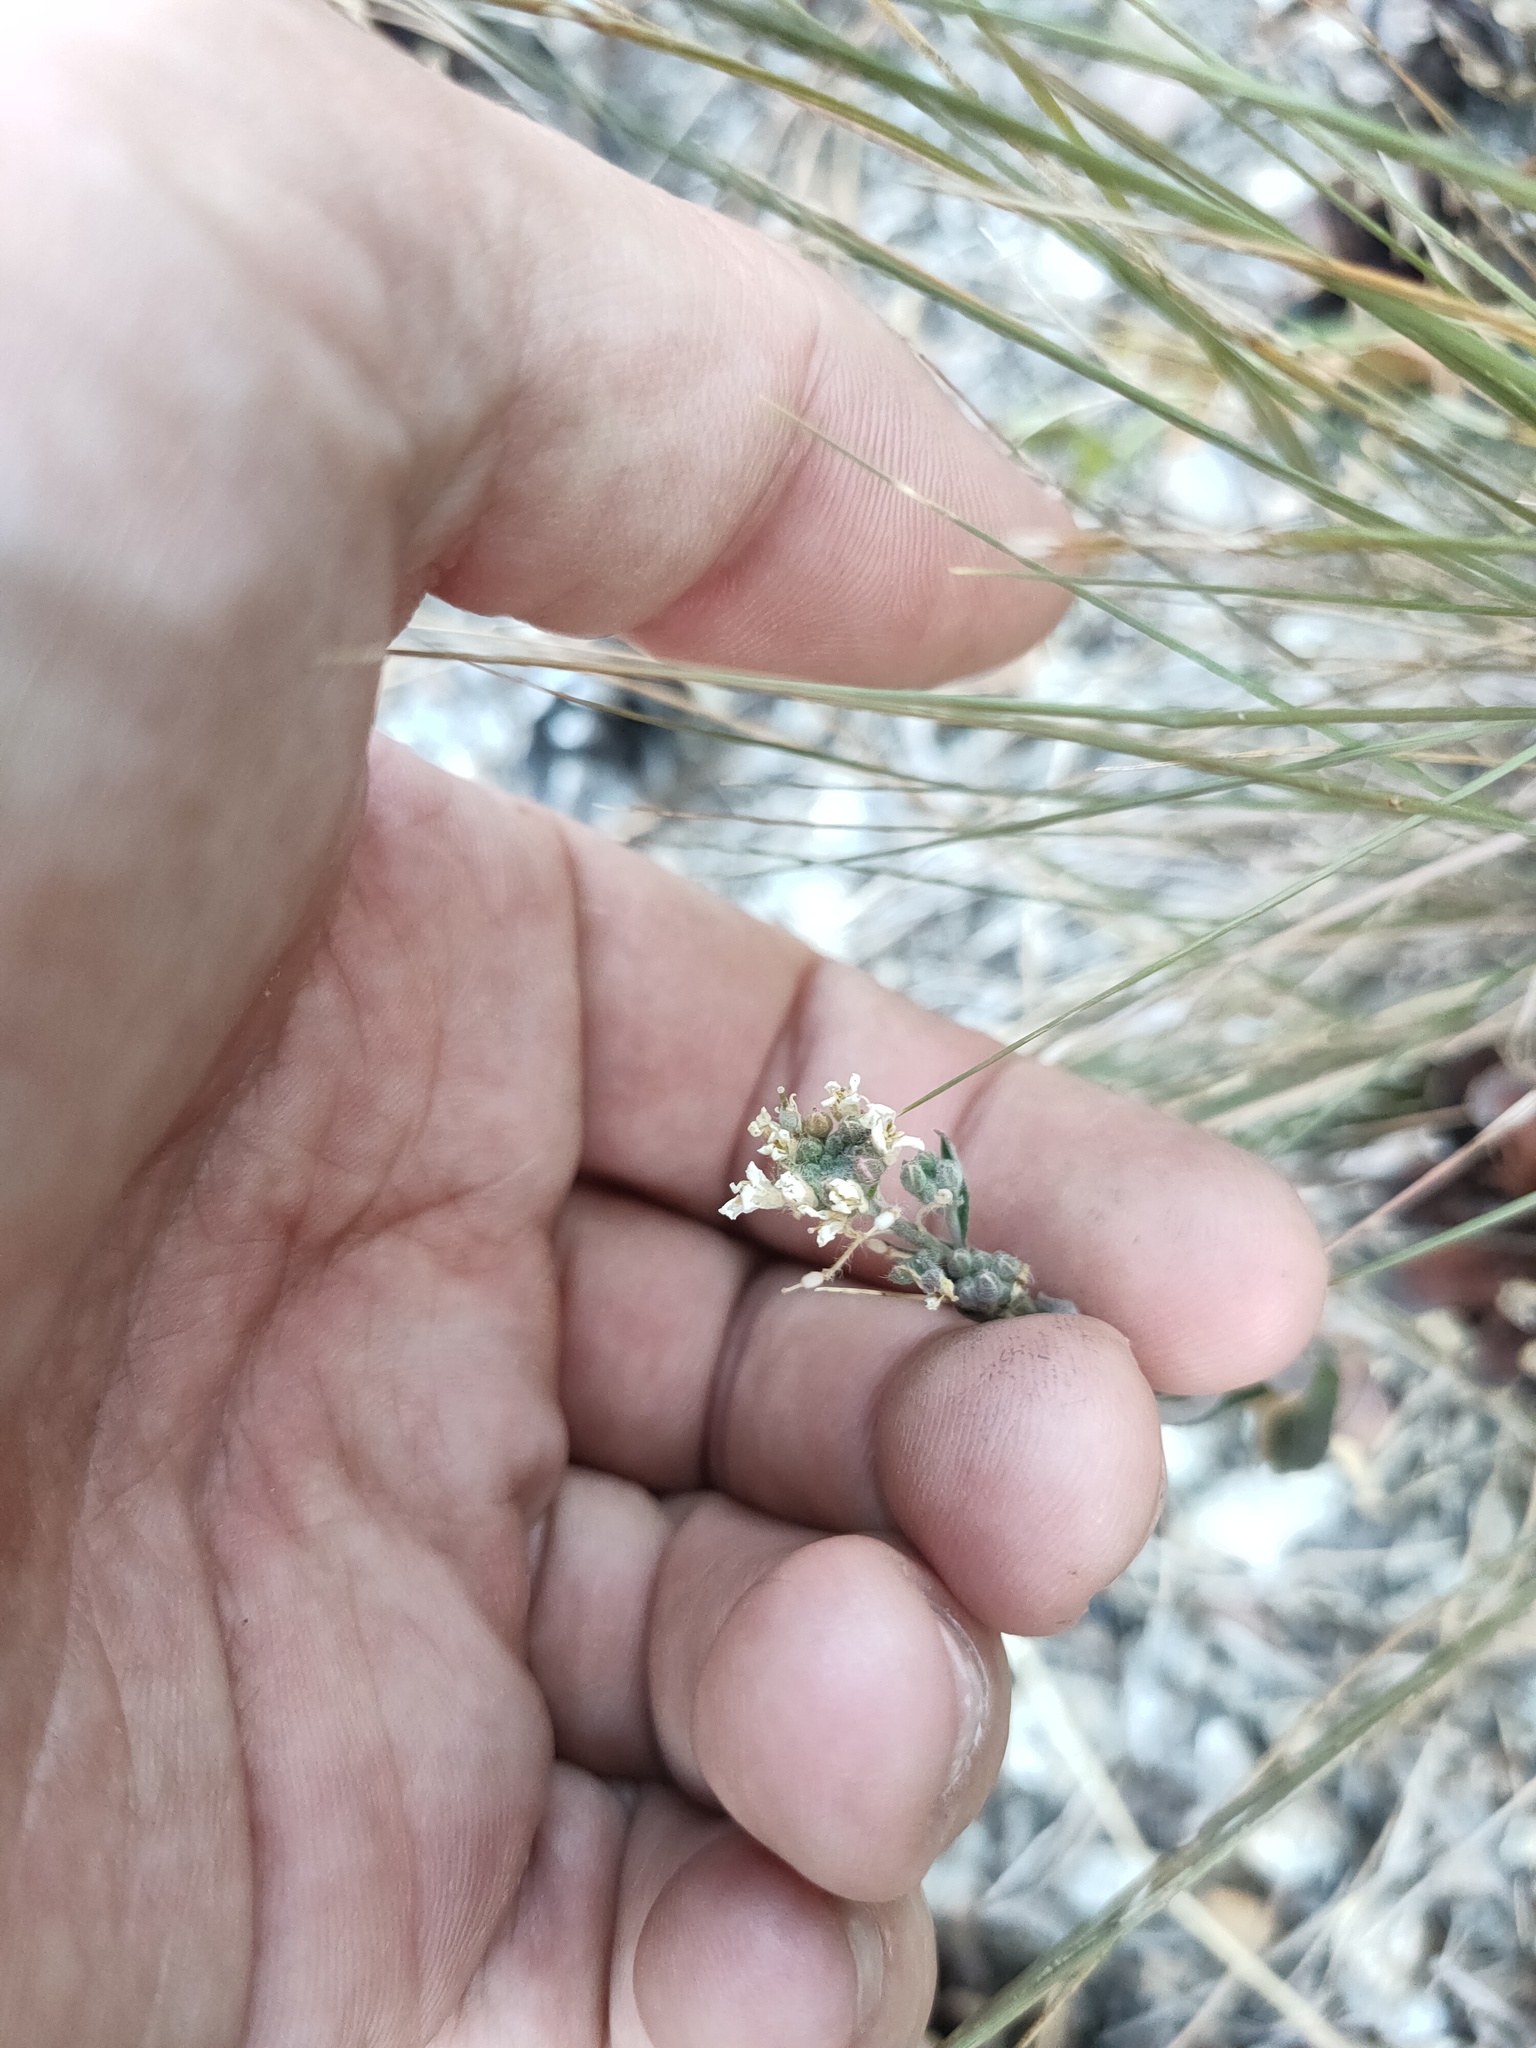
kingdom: Plantae
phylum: Tracheophyta
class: Magnoliopsida
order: Brassicales
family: Brassicaceae
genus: Berteroa
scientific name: Berteroa incana
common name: Hoary alison
